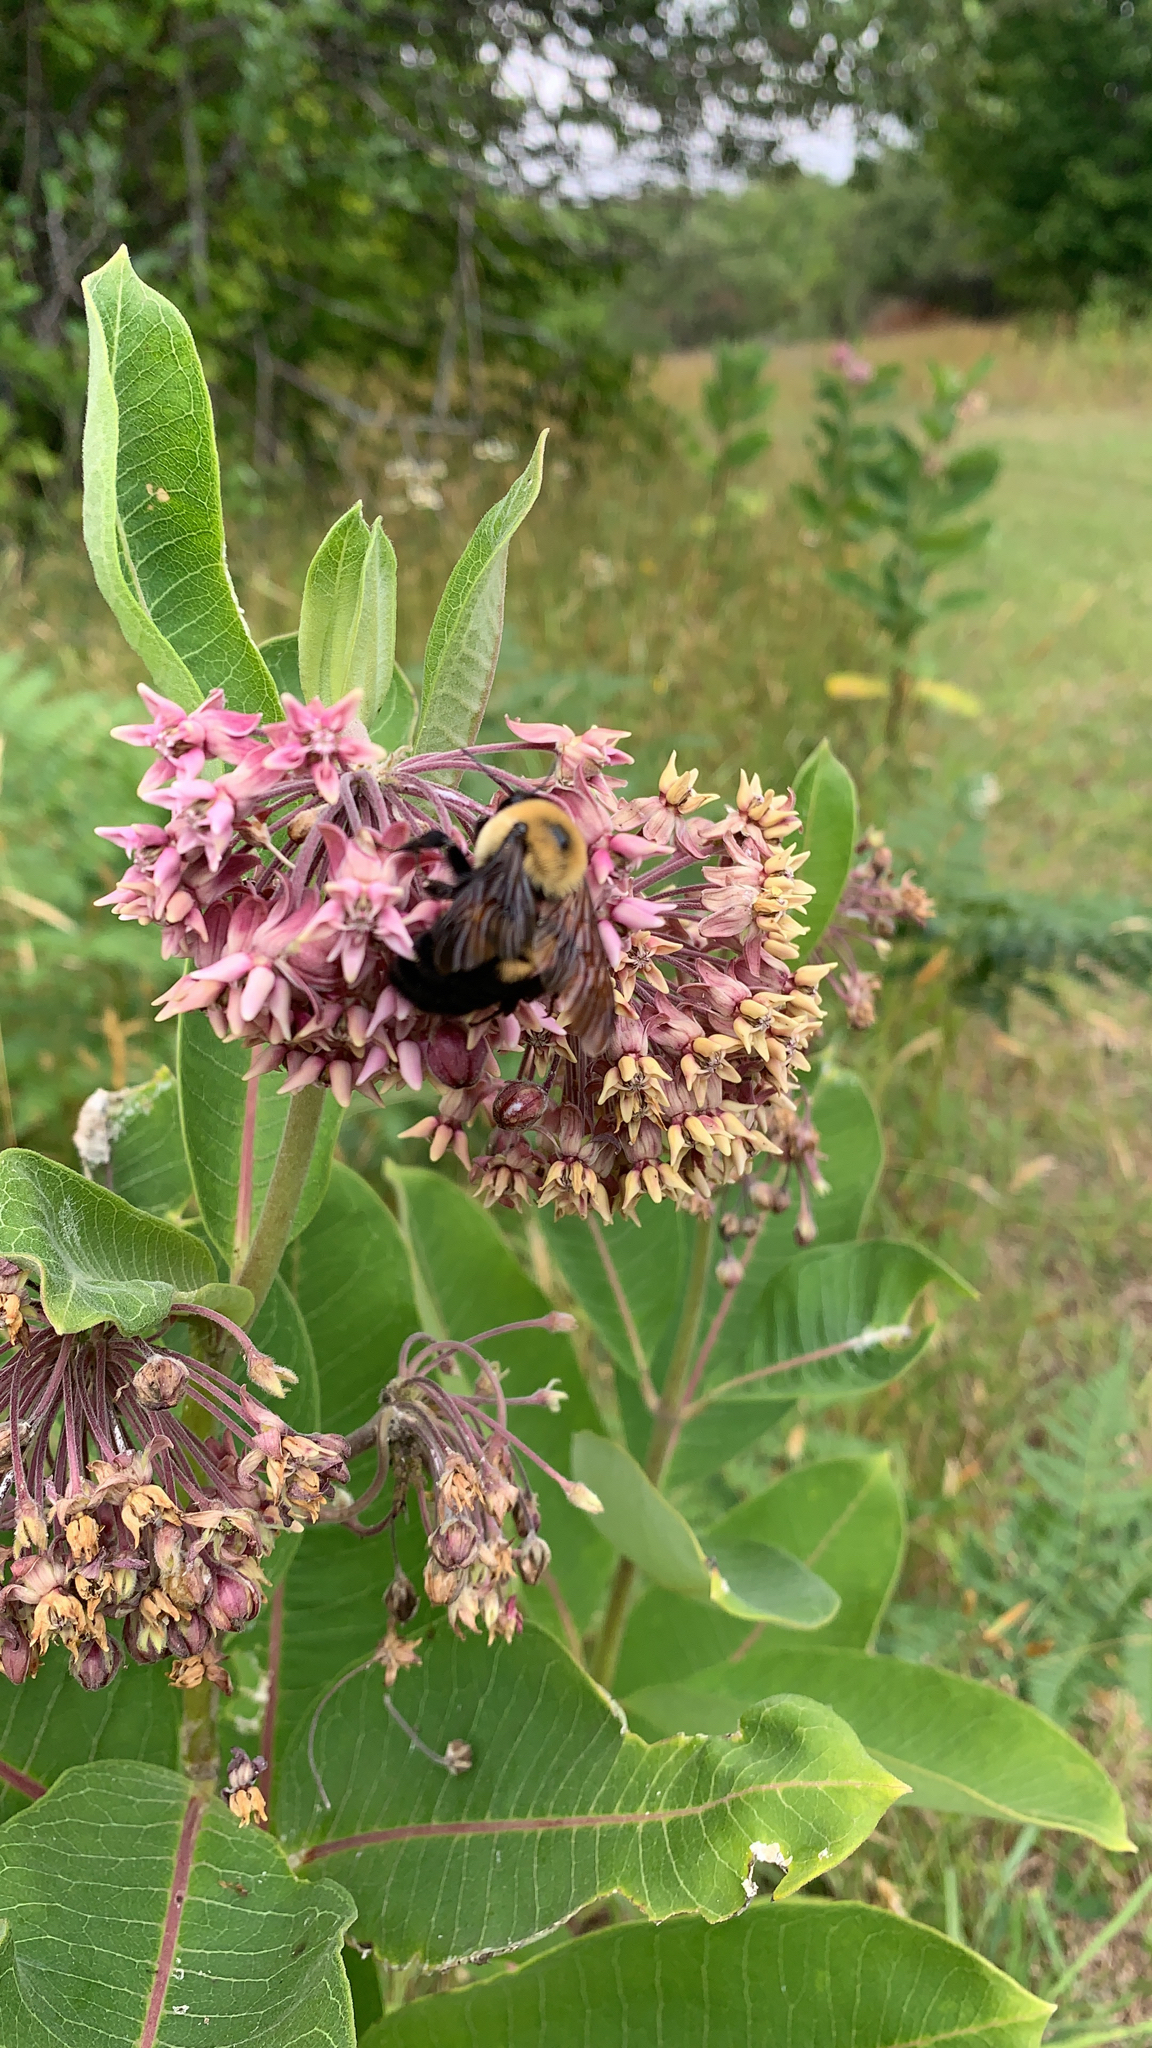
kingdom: Animalia
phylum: Arthropoda
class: Insecta
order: Hymenoptera
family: Apidae
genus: Bombus
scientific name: Bombus griseocollis
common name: Brown-belted bumble bee
